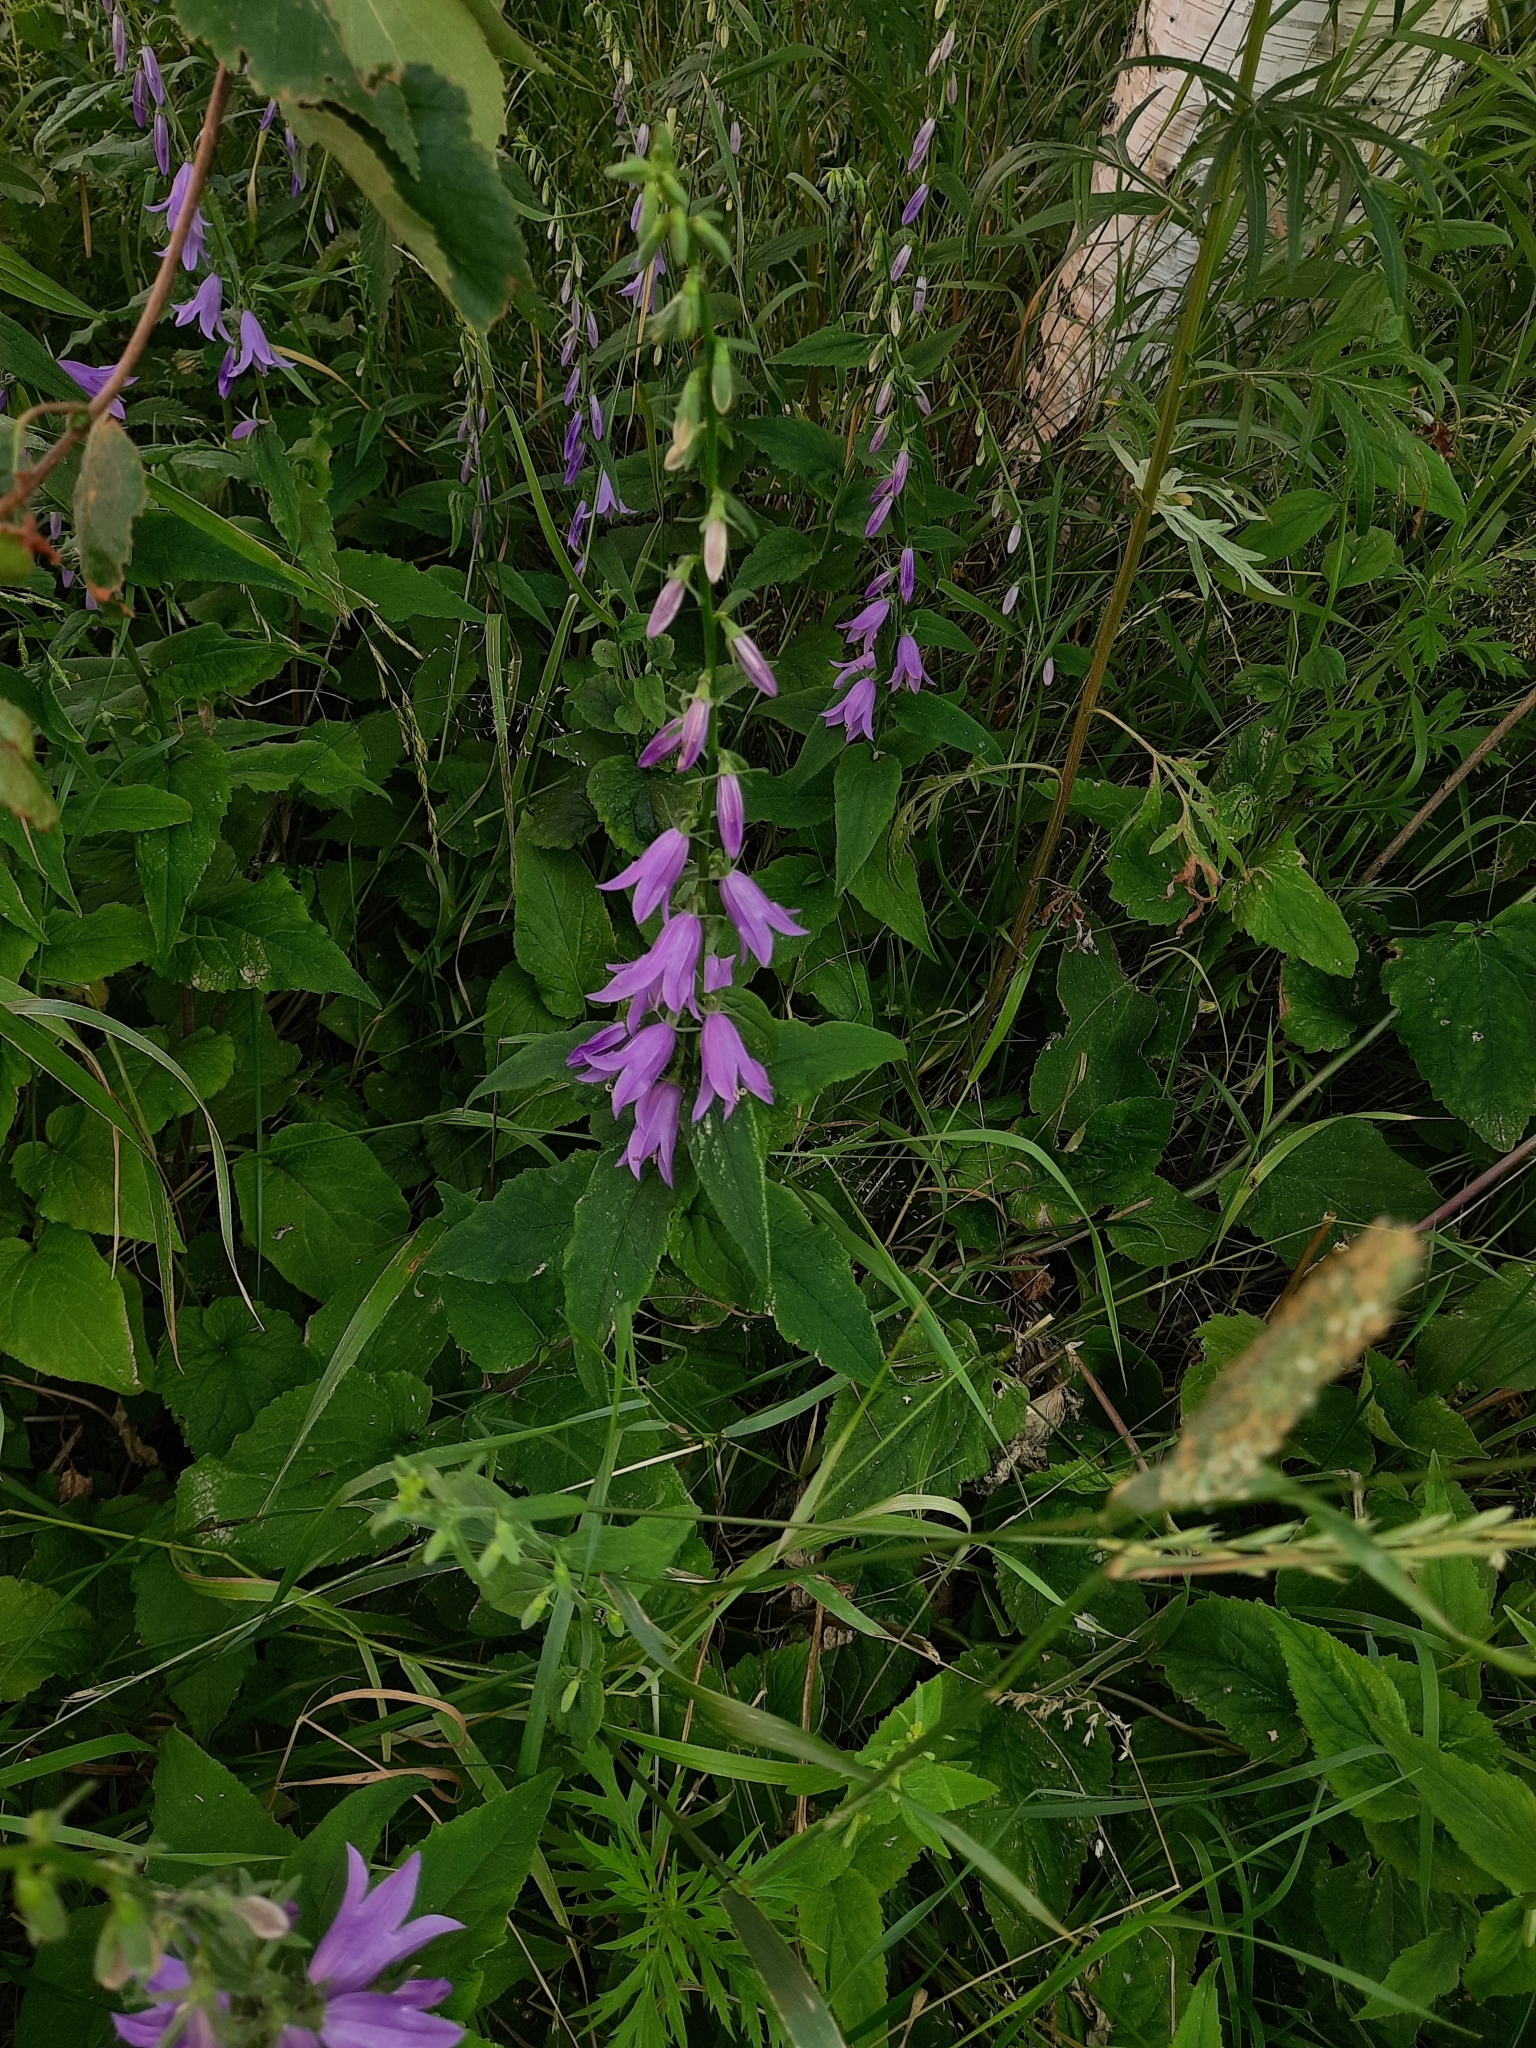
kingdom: Plantae
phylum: Tracheophyta
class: Magnoliopsida
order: Asterales
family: Campanulaceae
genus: Campanula
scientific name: Campanula rapunculoides
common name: Creeping bellflower
